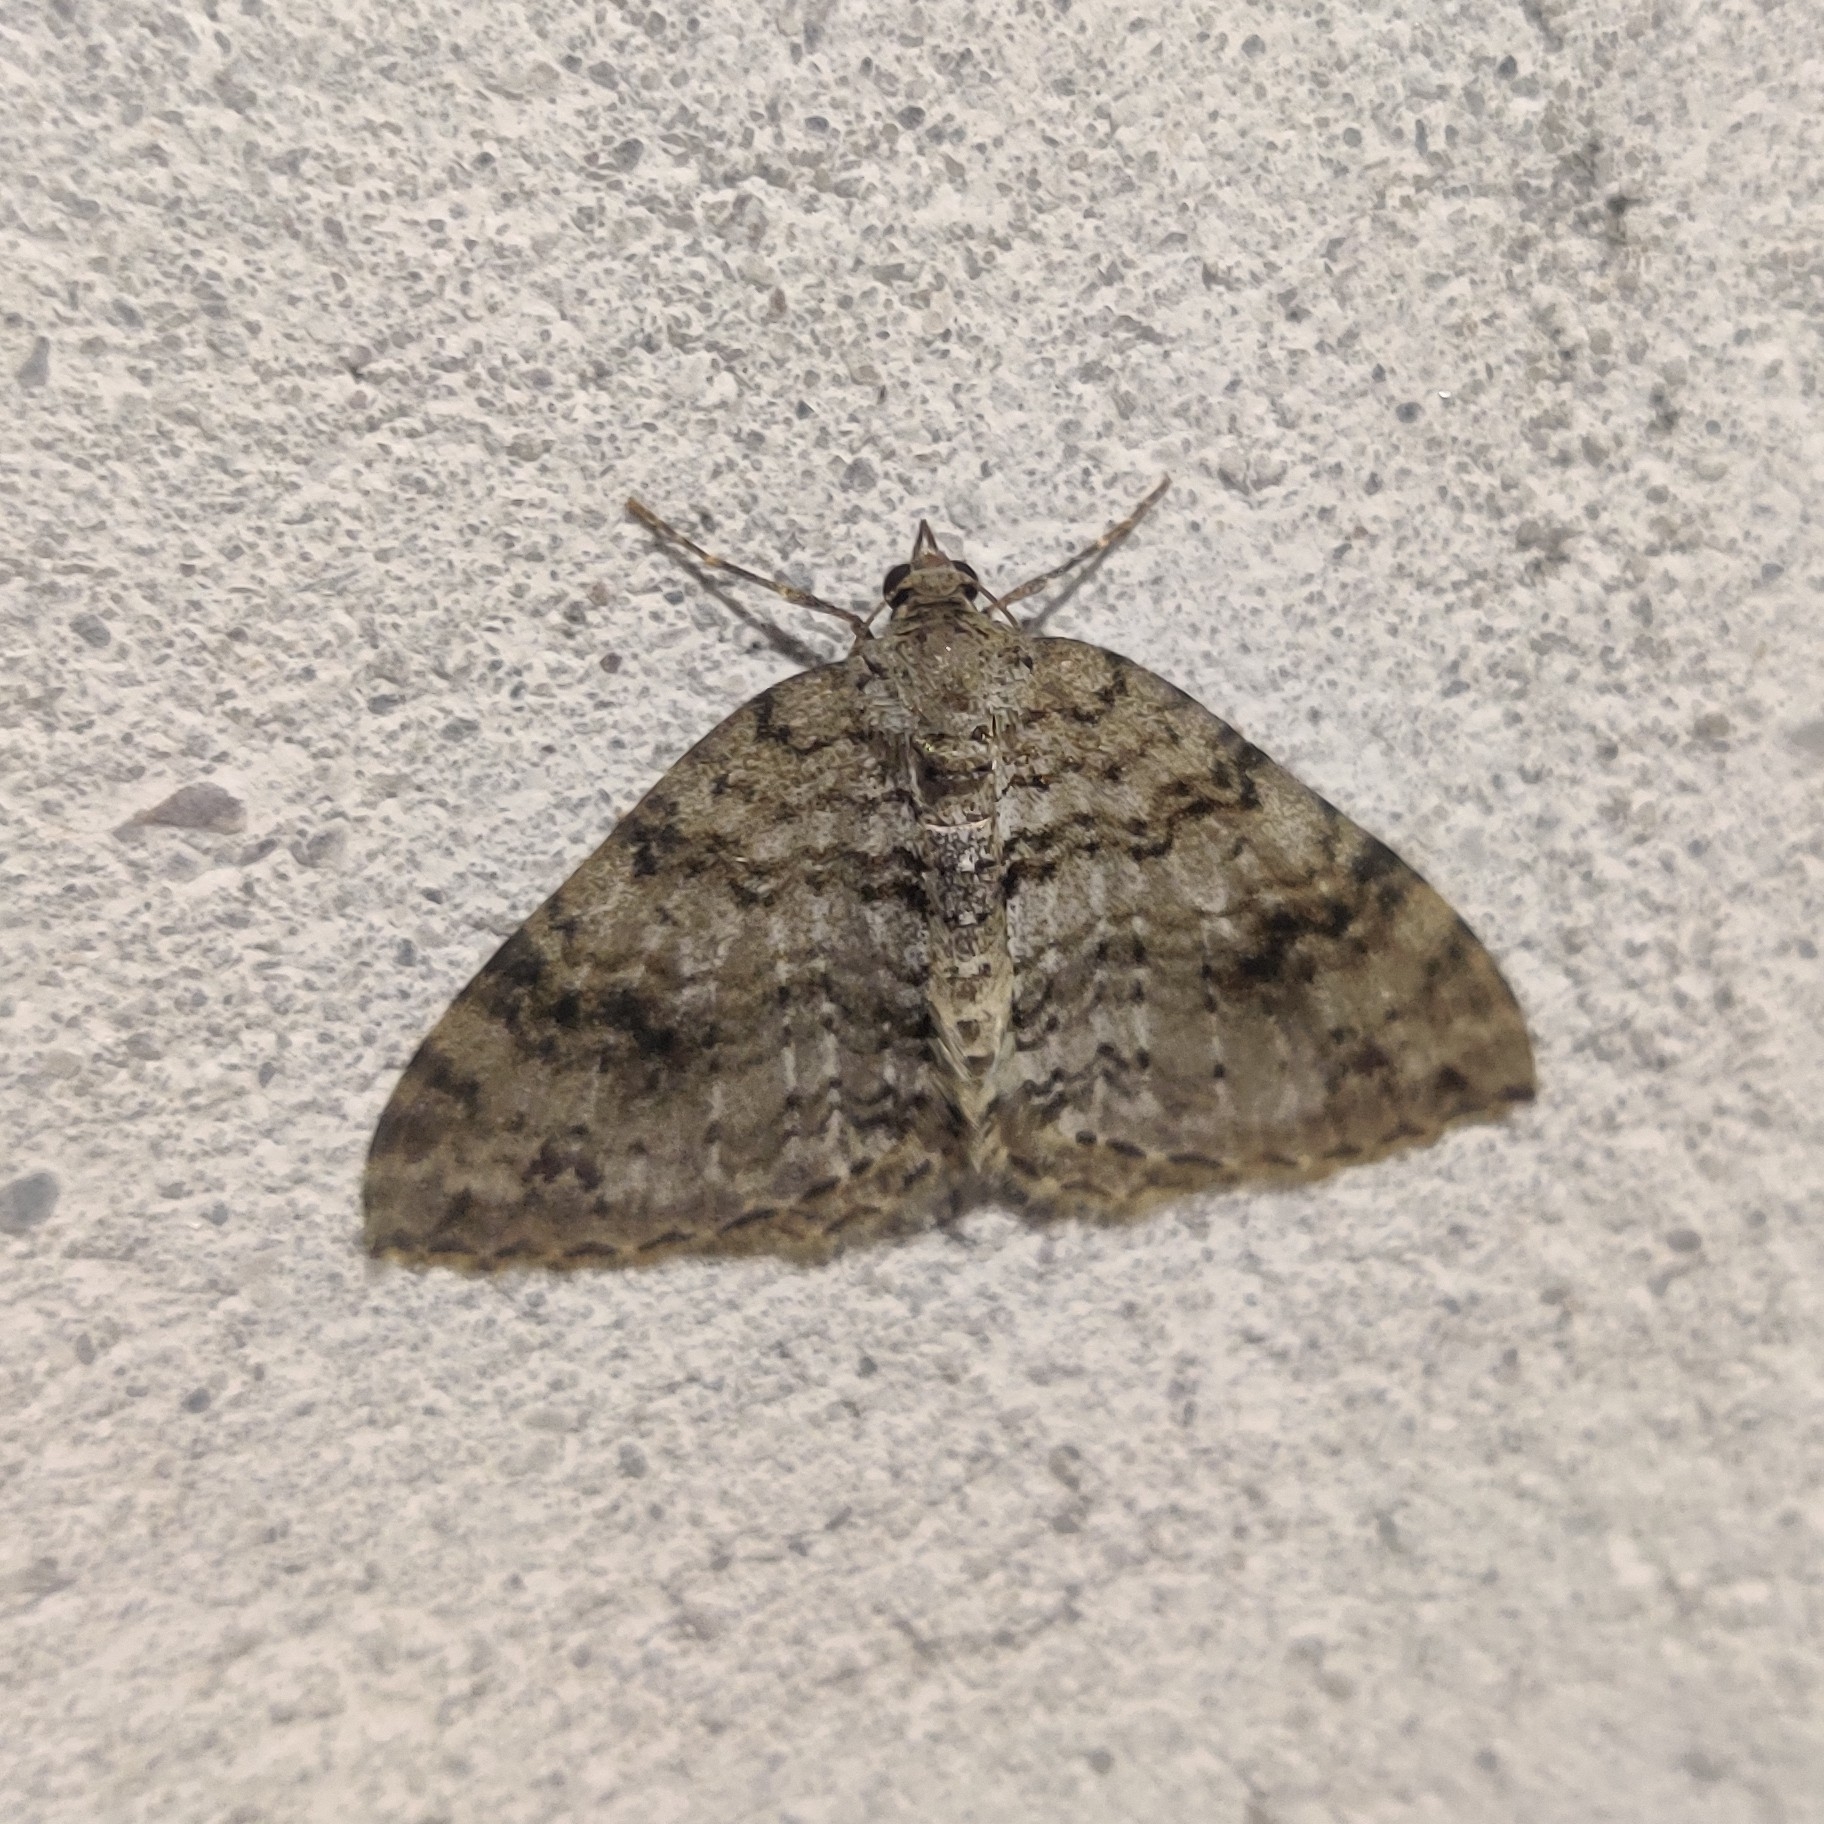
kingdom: Animalia
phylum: Arthropoda
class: Insecta
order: Lepidoptera
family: Geometridae
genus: Atopophysa
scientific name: Atopophysa indistincta
